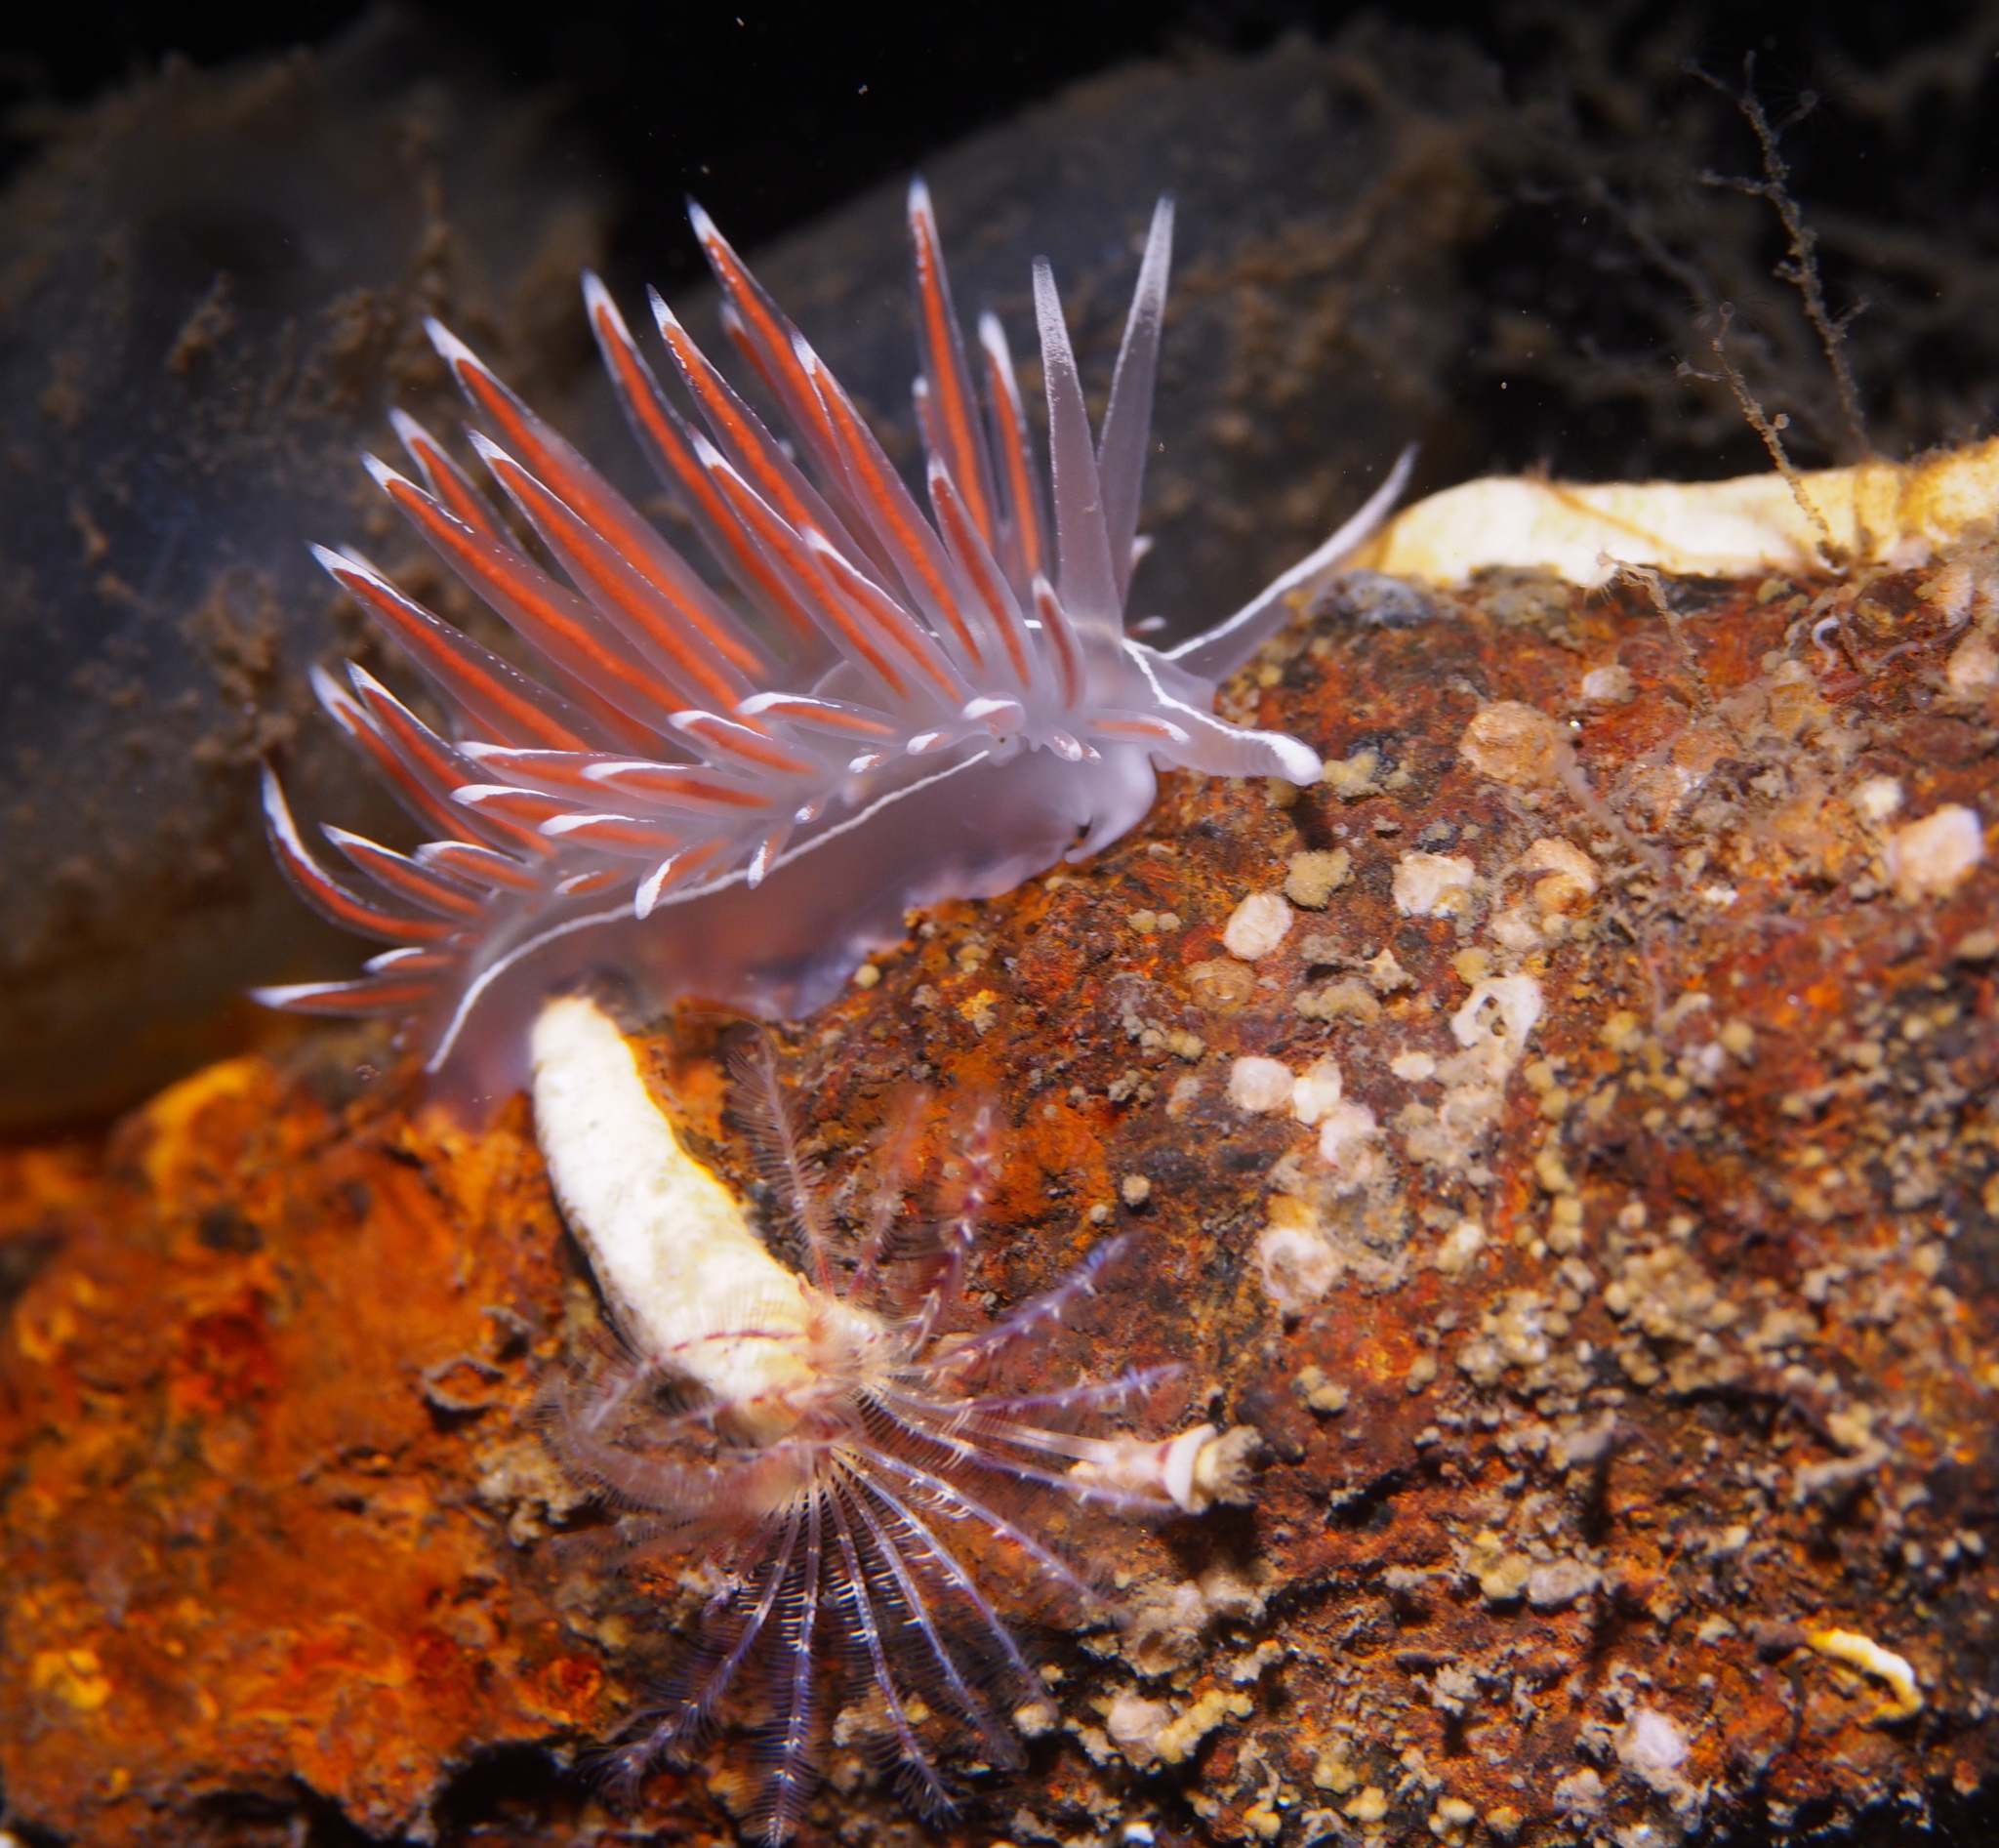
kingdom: Animalia
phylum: Mollusca
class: Gastropoda
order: Nudibranchia
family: Coryphellidae
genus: Coryphella
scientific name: Coryphella lineata
